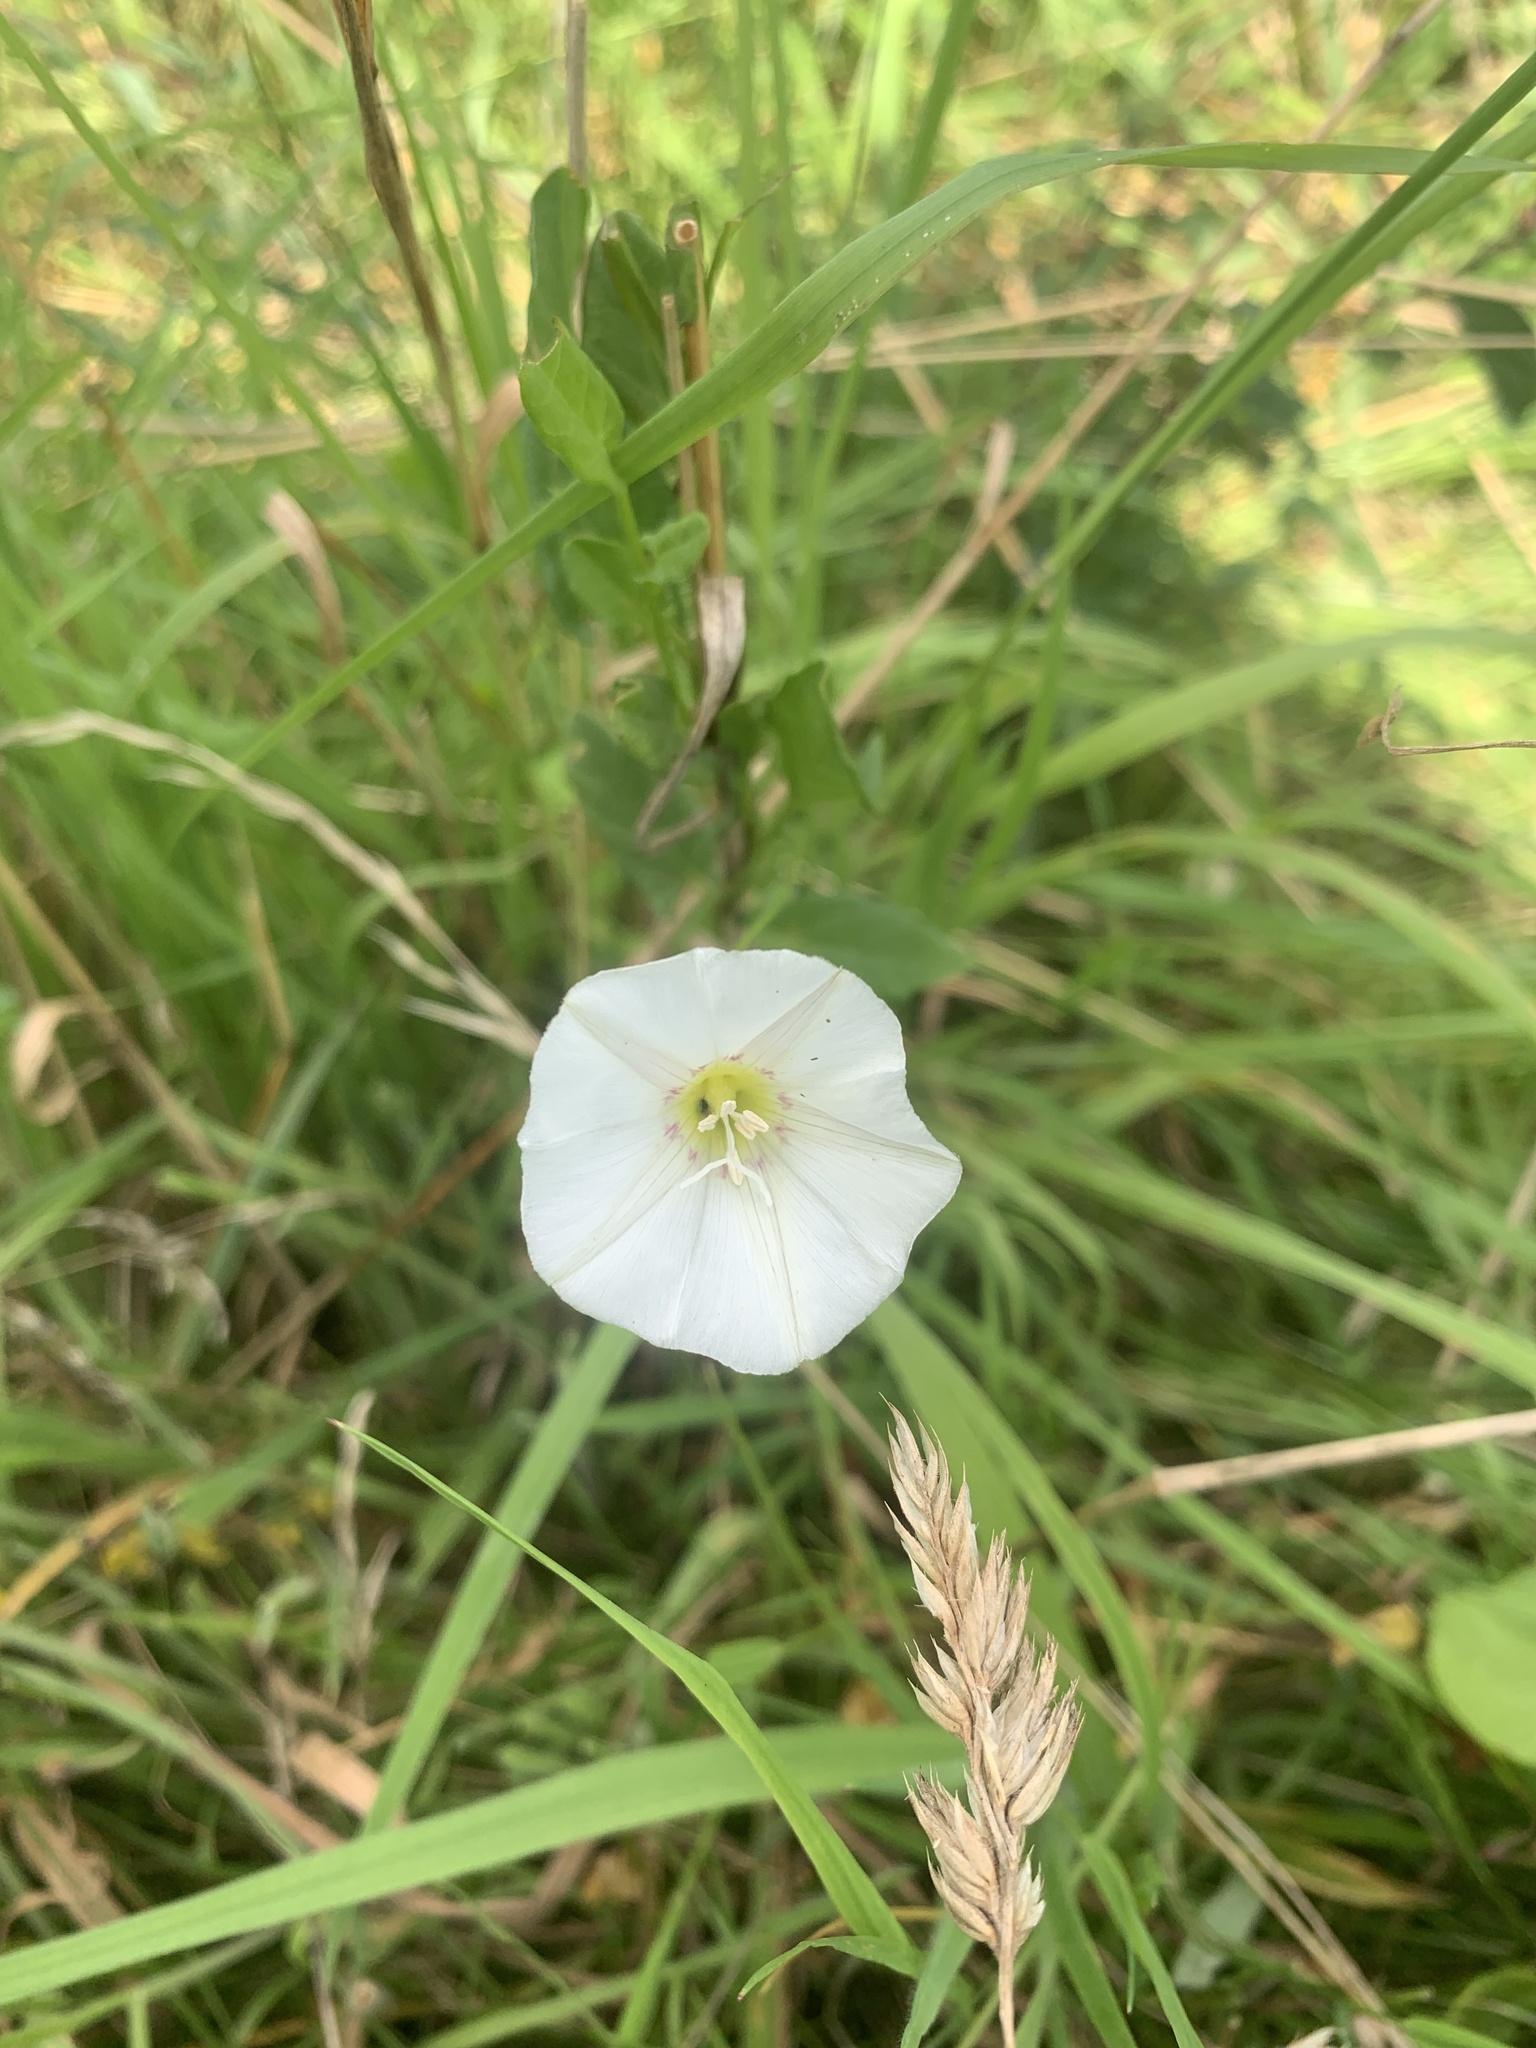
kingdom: Plantae
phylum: Tracheophyta
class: Magnoliopsida
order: Solanales
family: Convolvulaceae
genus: Convolvulus
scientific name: Convolvulus arvensis
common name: Field bindweed
